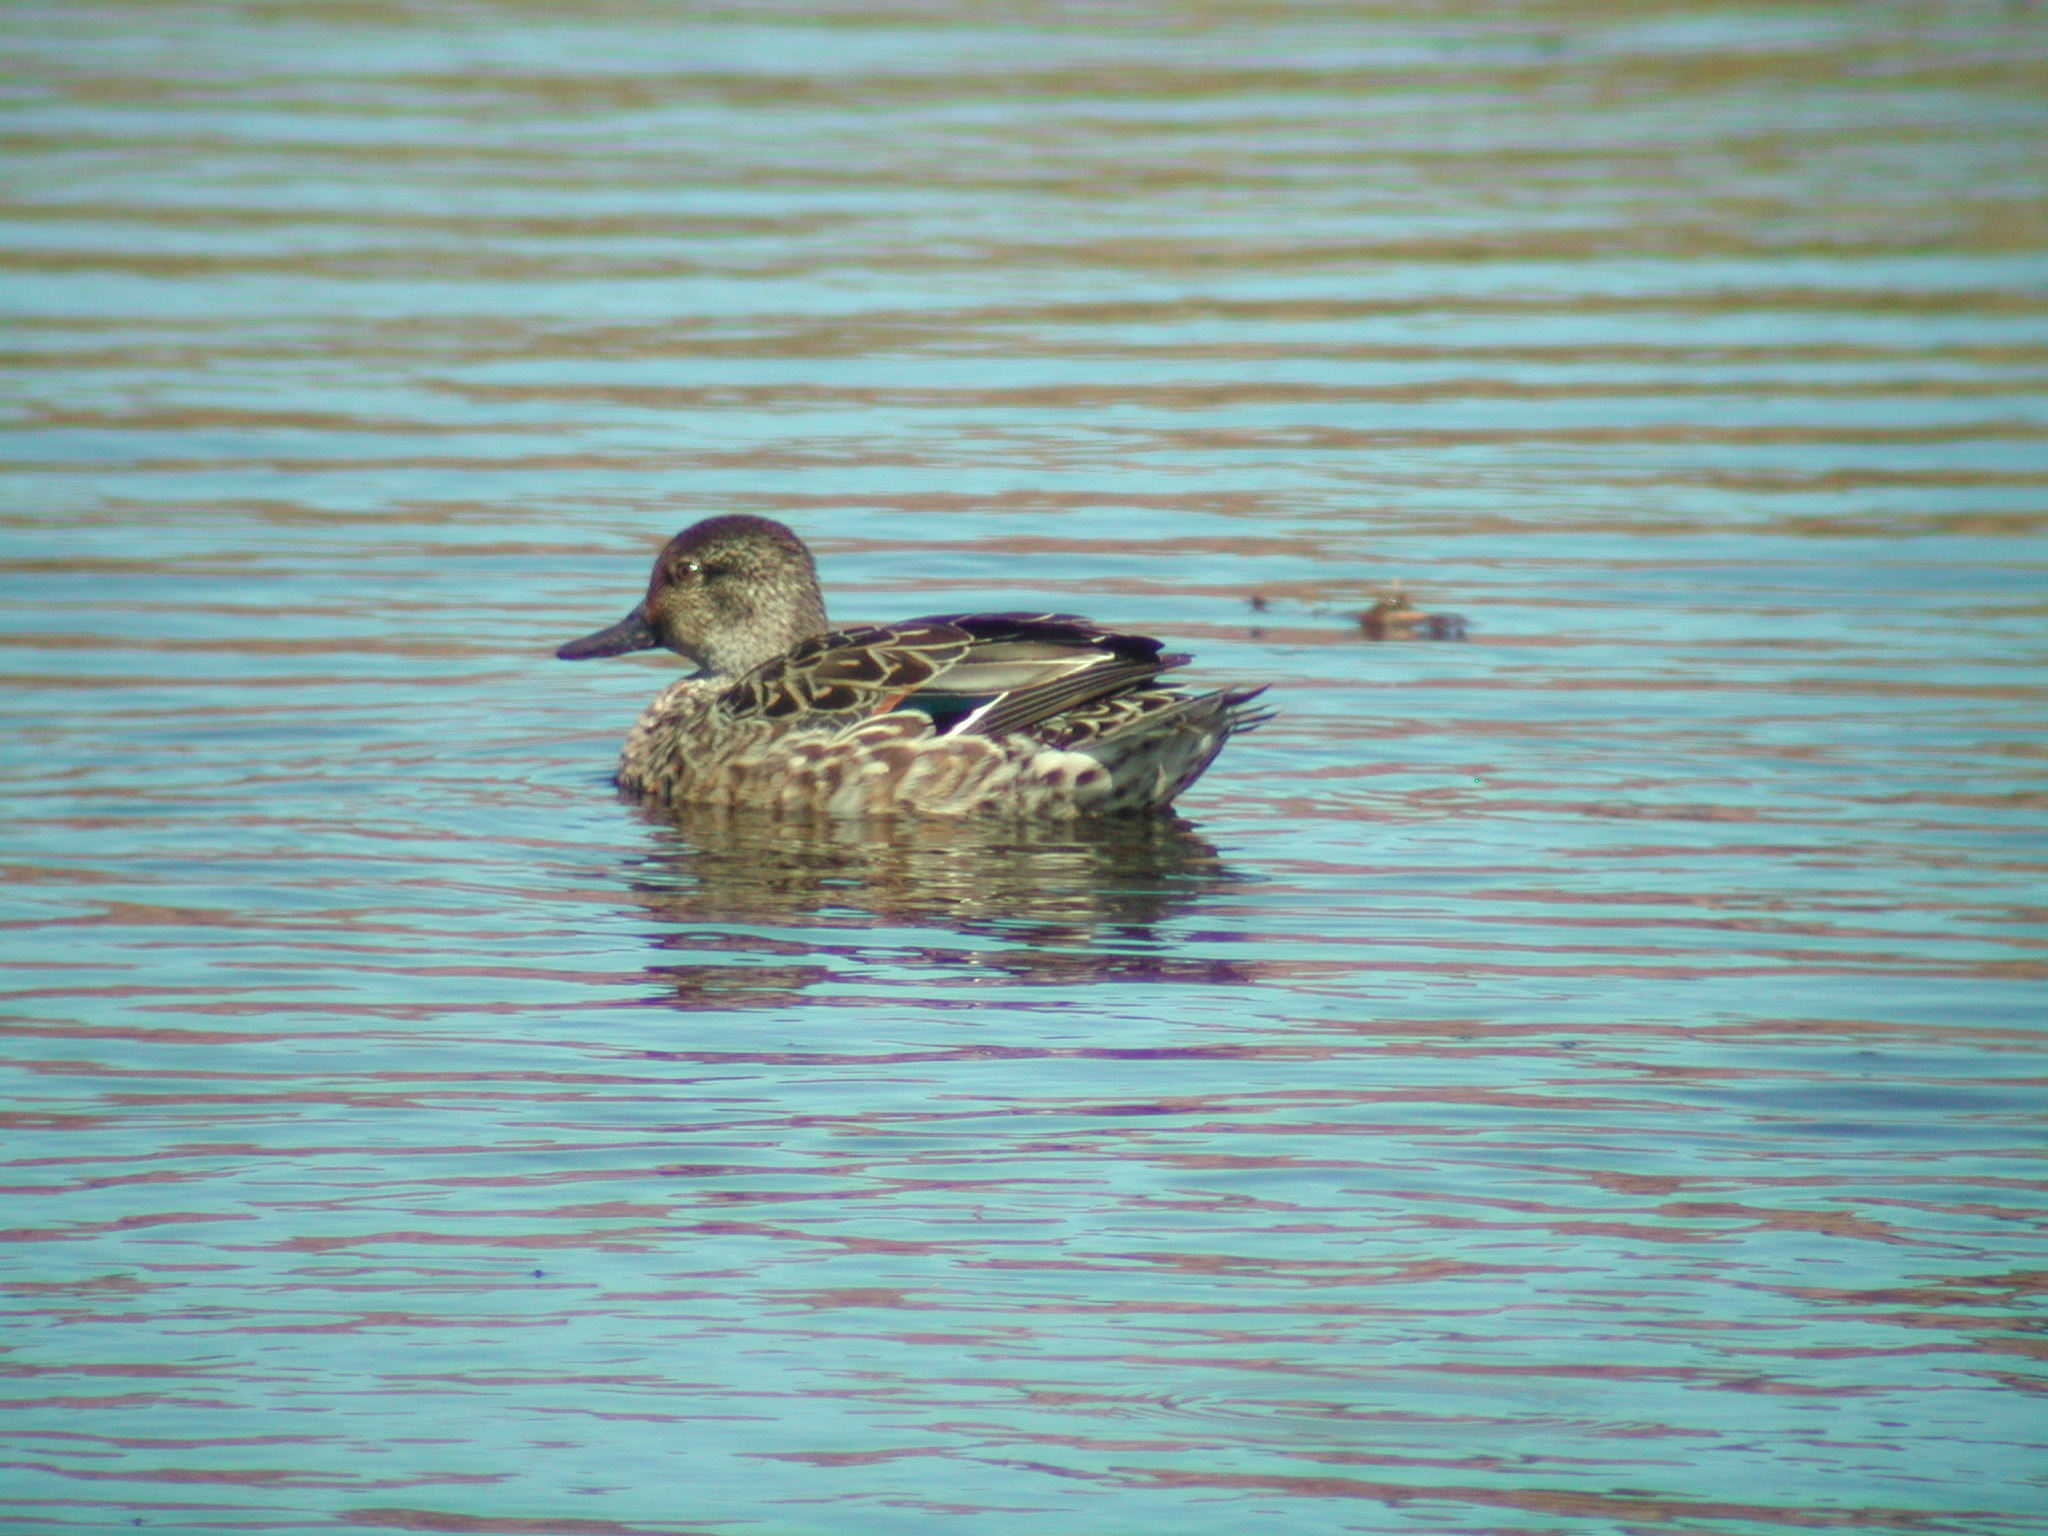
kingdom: Animalia
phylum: Chordata
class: Aves
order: Anseriformes
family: Anatidae
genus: Anas
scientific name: Anas crecca
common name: Eurasian teal
